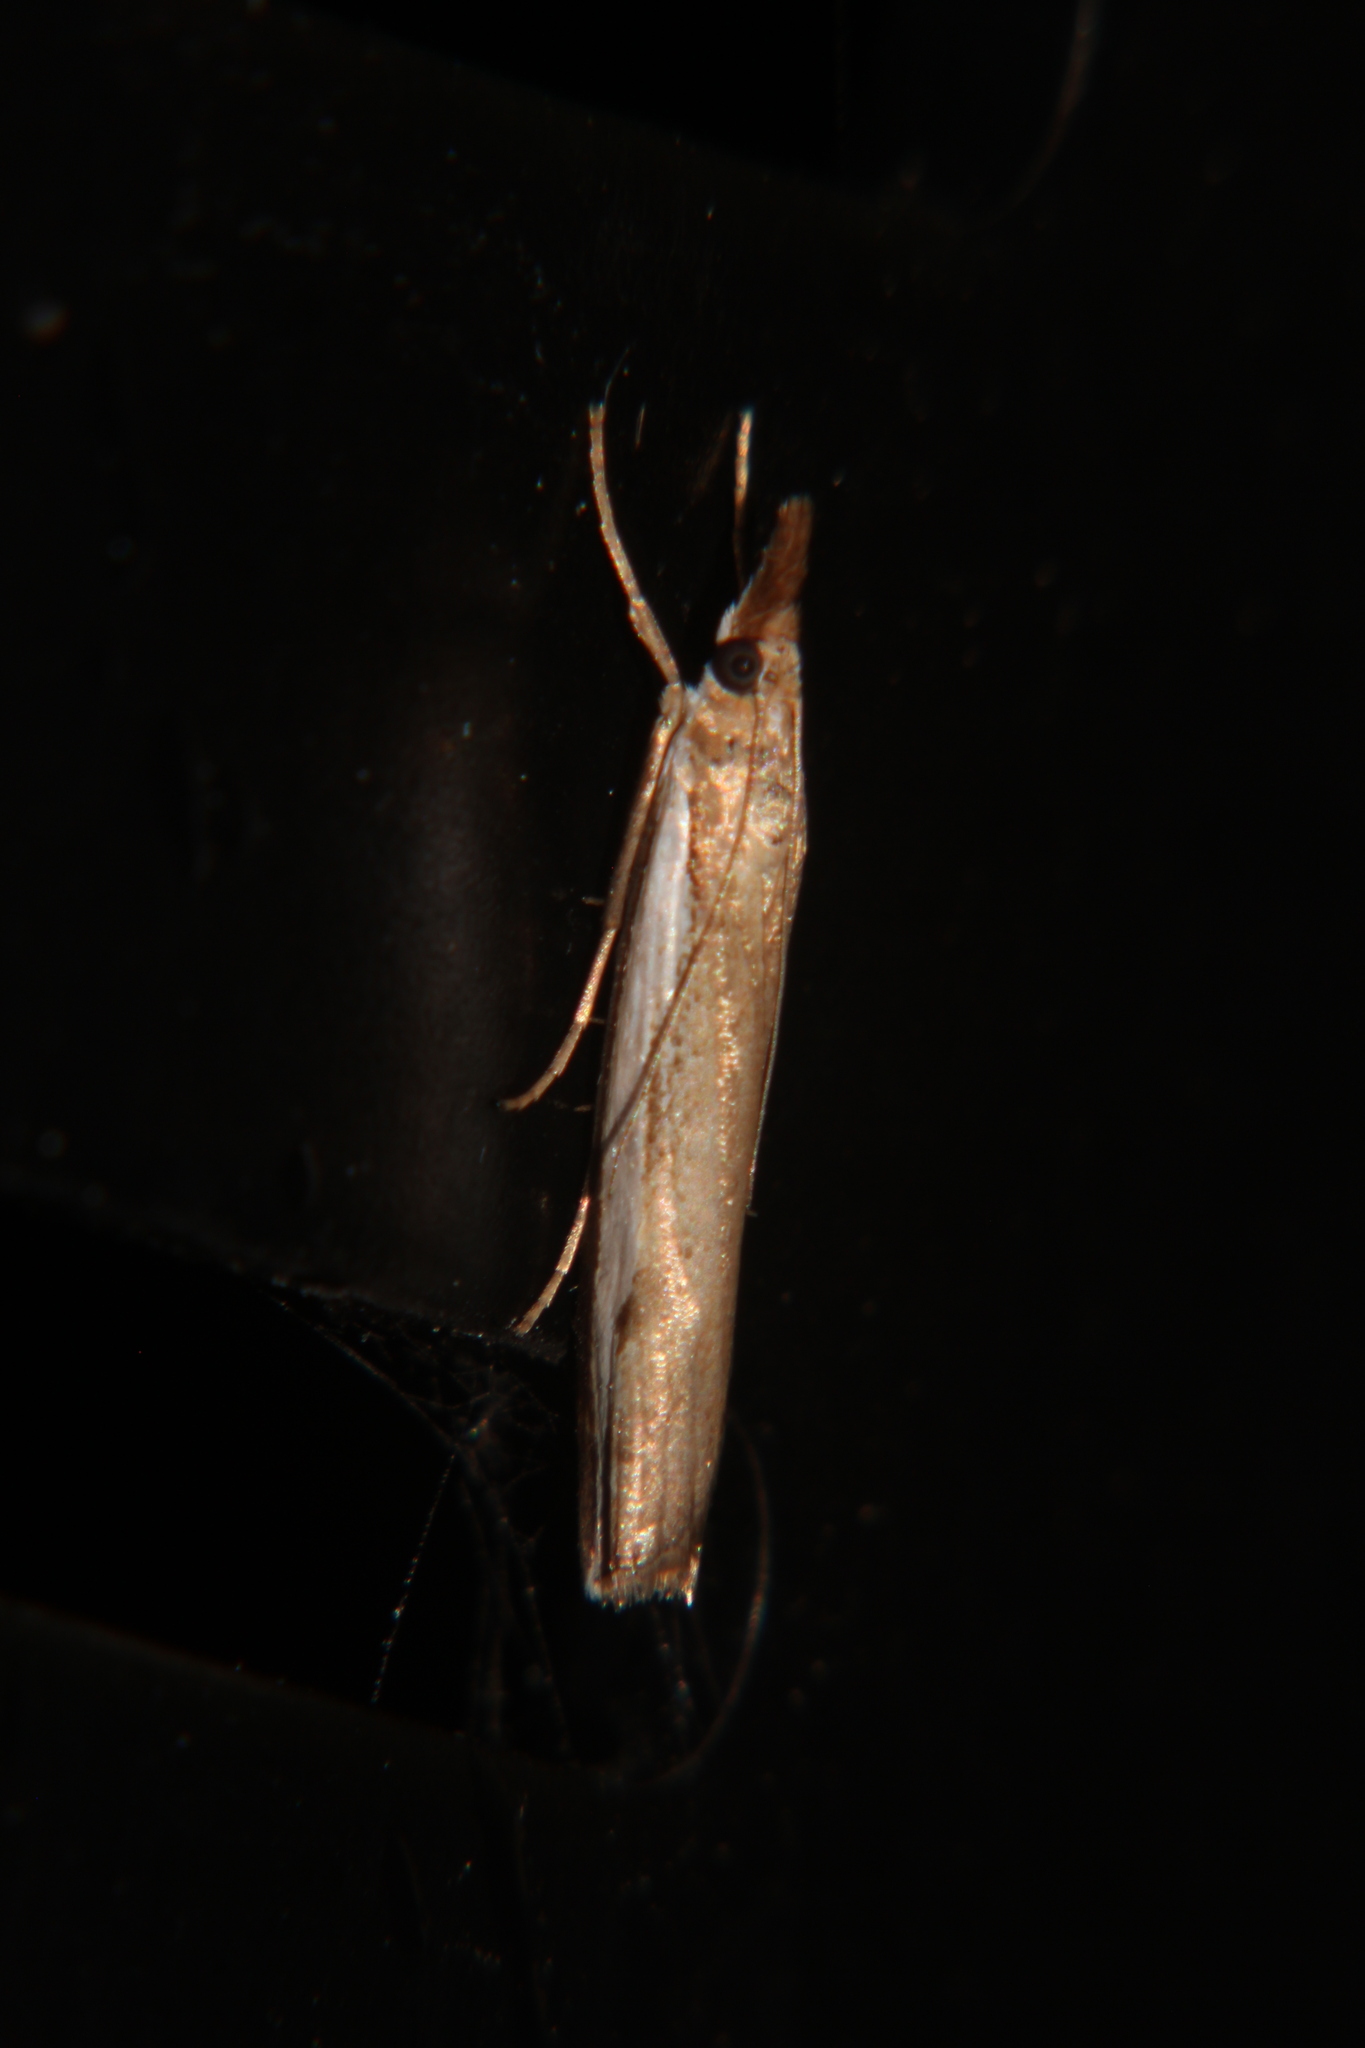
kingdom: Animalia
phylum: Arthropoda
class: Insecta
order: Lepidoptera
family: Crambidae
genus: Orocrambus
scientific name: Orocrambus flexuosellus
